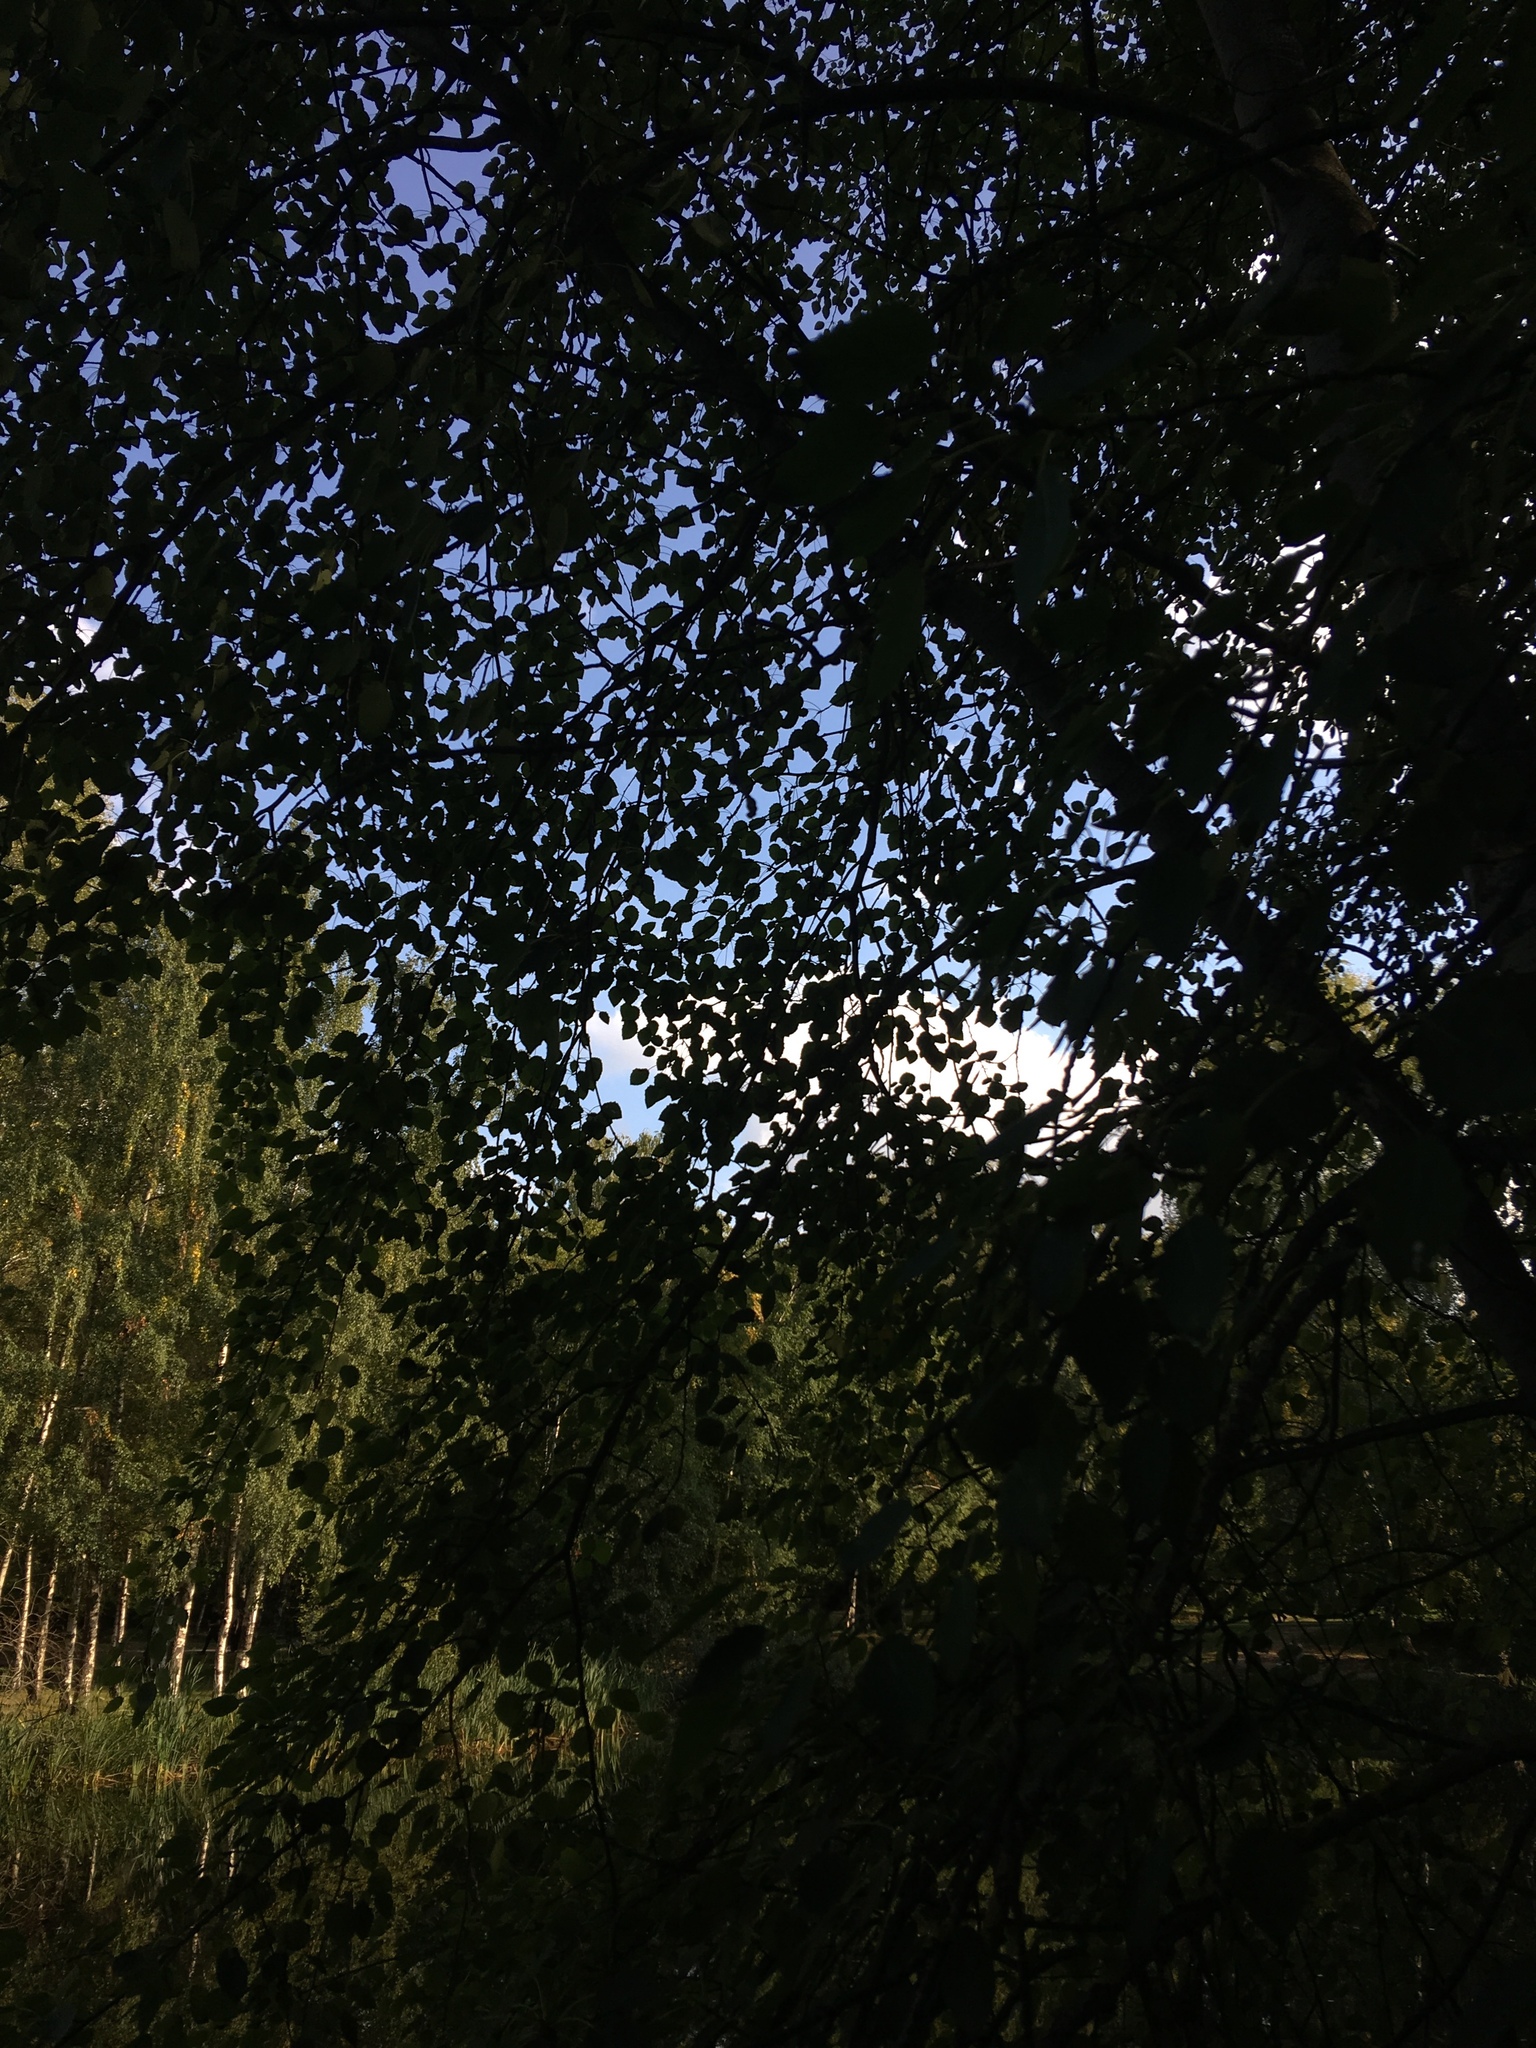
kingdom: Plantae
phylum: Tracheophyta
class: Magnoliopsida
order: Malpighiales
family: Salicaceae
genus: Populus
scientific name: Populus tremula
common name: European aspen
